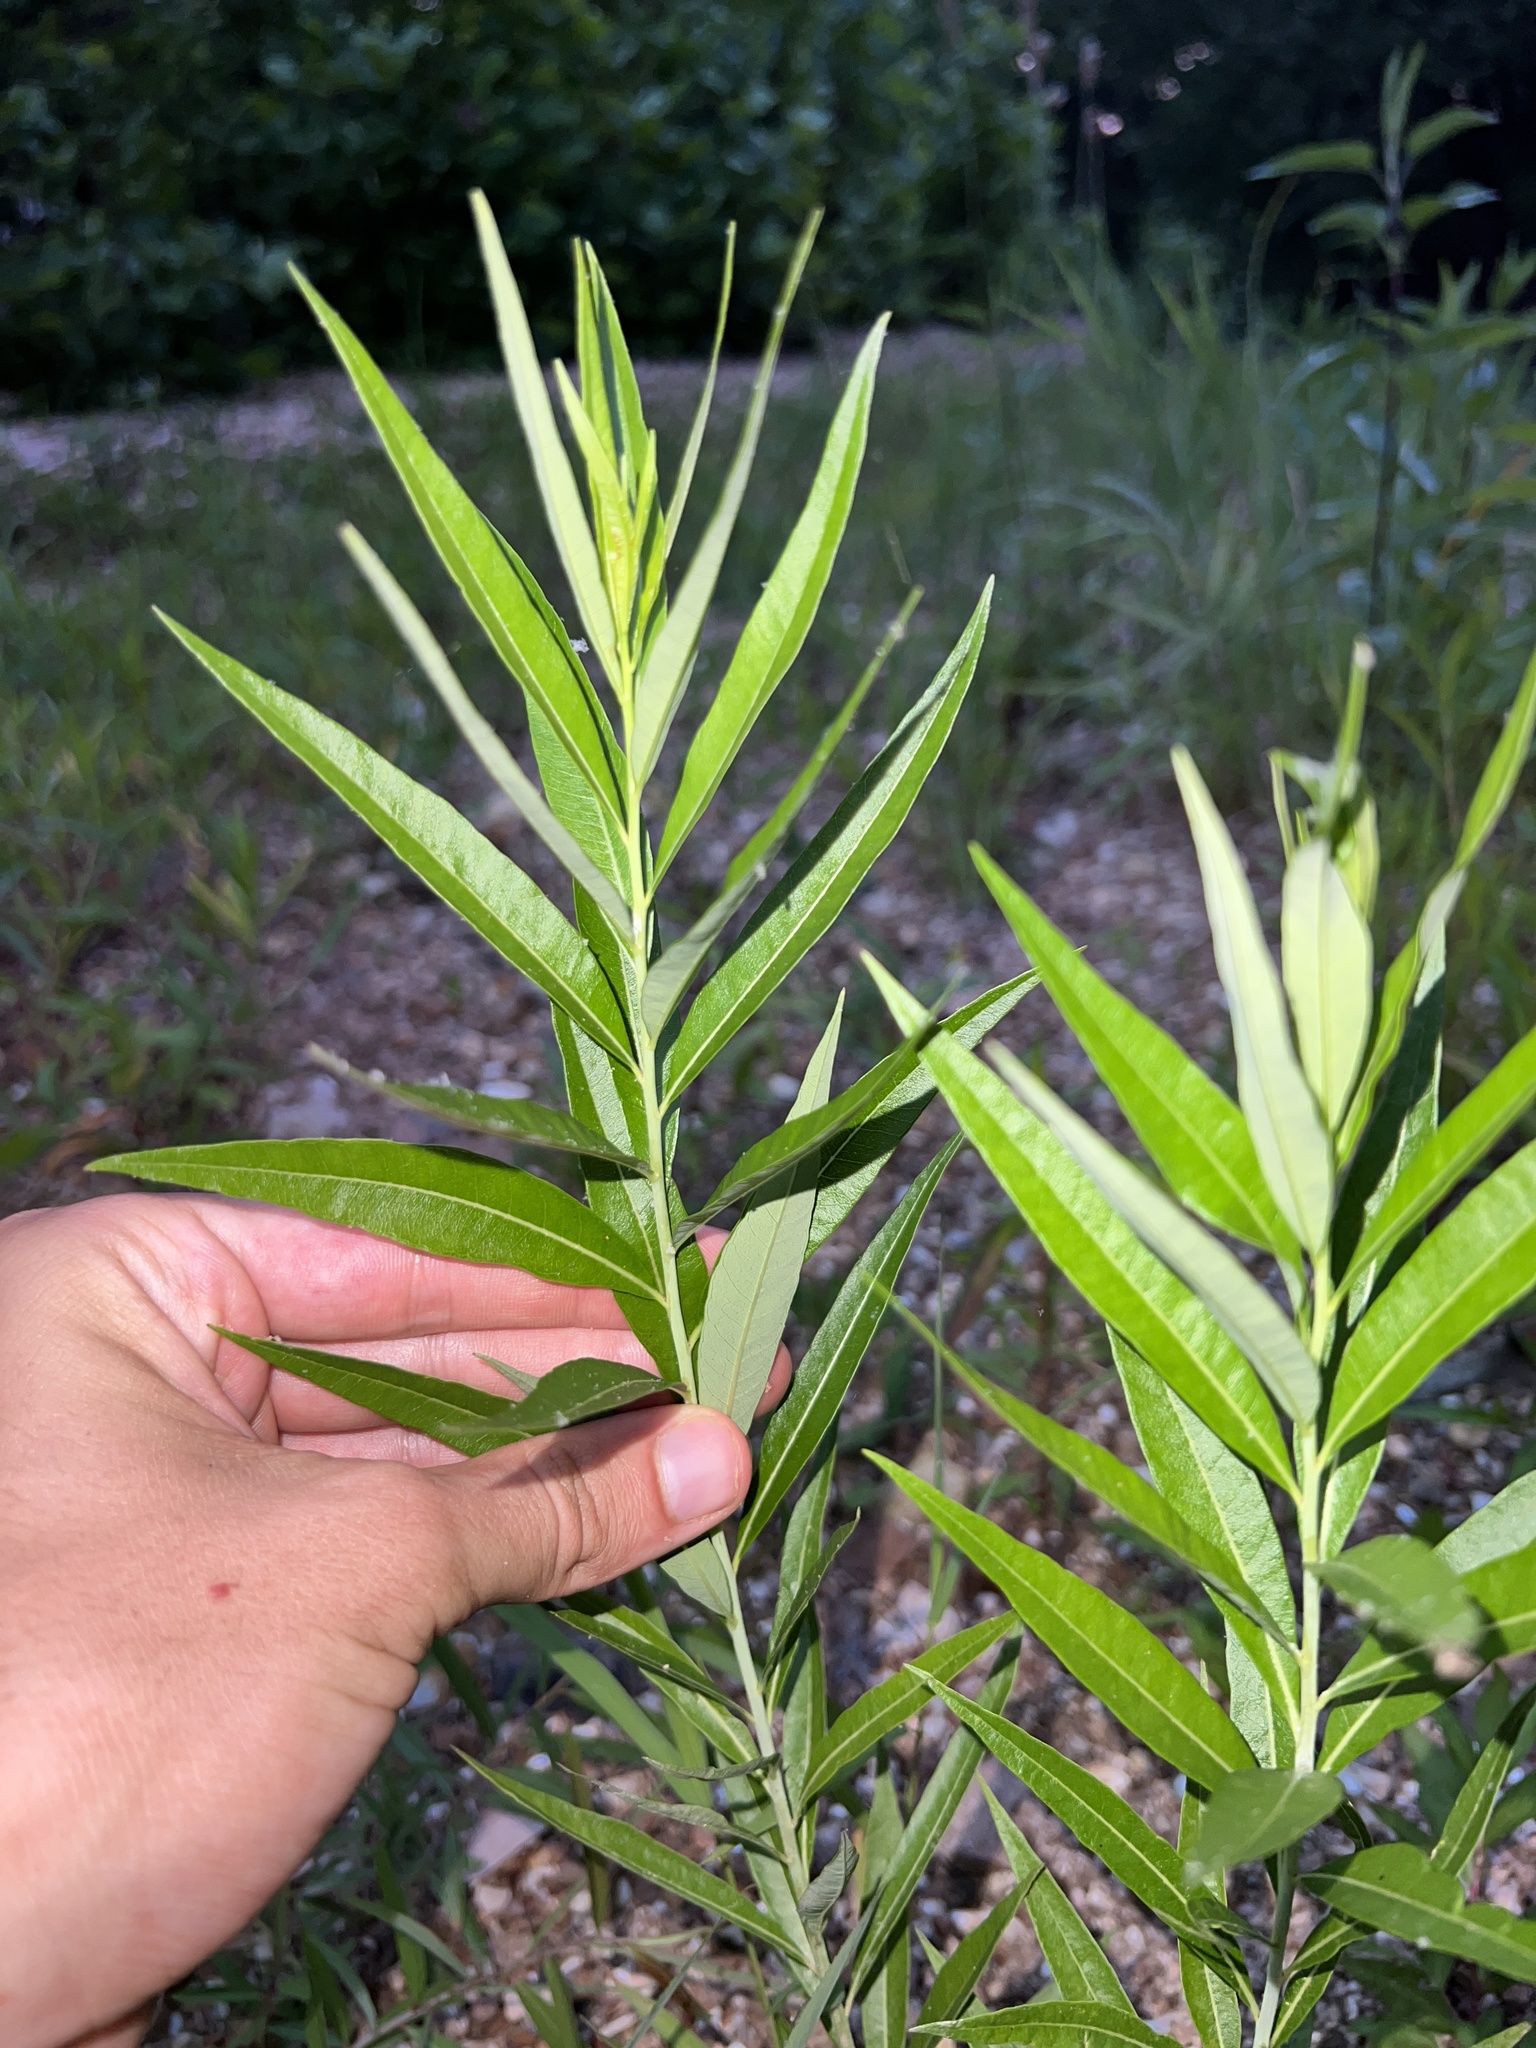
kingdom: Plantae
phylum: Tracheophyta
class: Magnoliopsida
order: Gentianales
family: Apocynaceae
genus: Amsonia
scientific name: Amsonia tabernaemontana
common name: Texas-star
